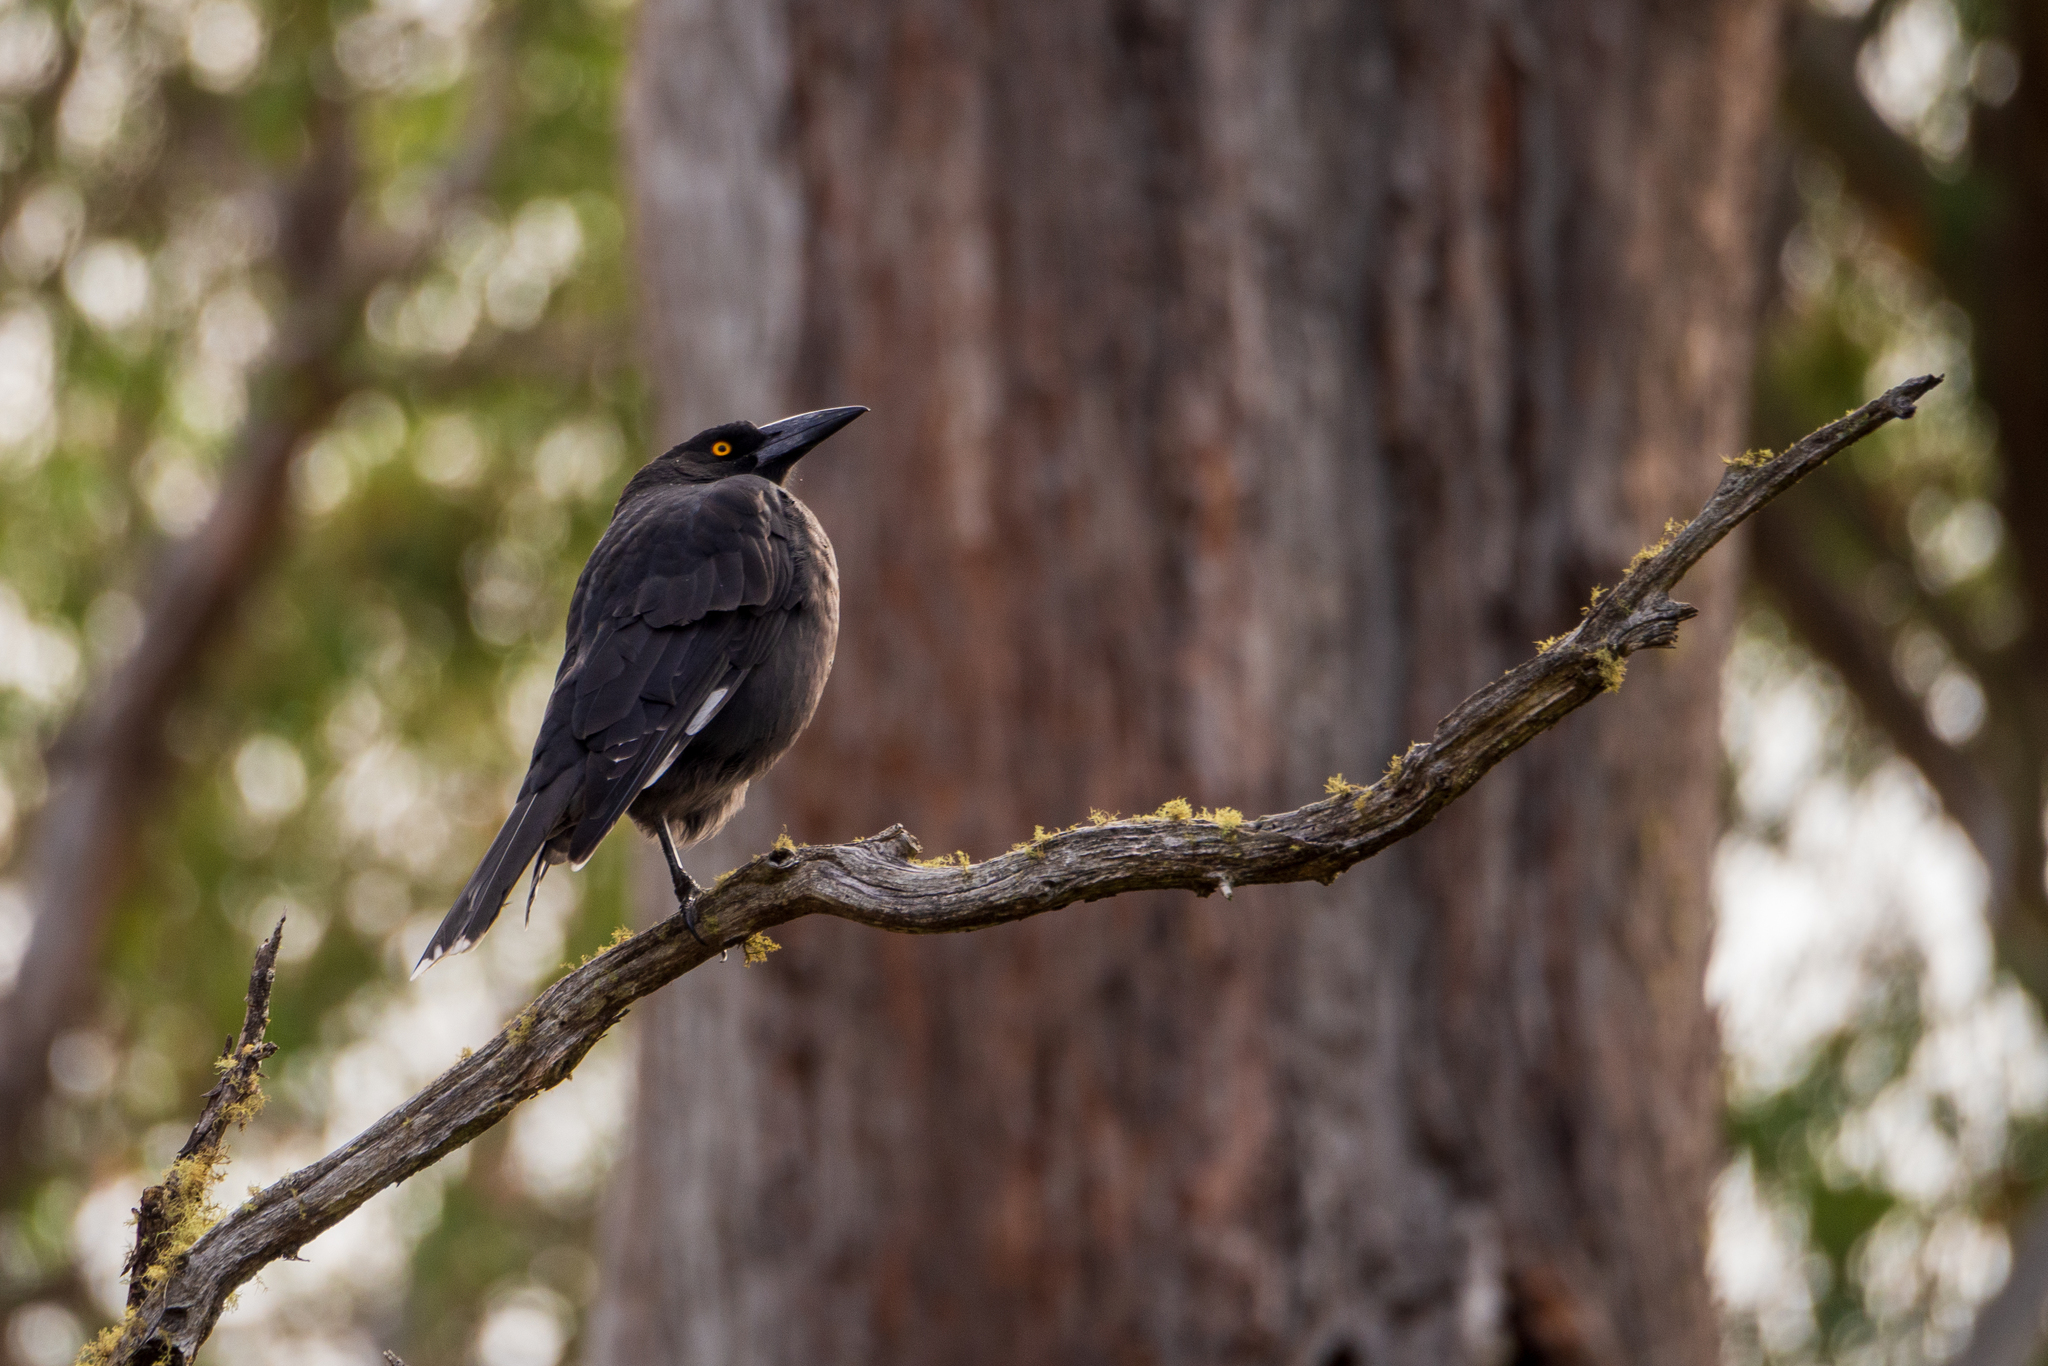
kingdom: Animalia
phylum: Chordata
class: Aves
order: Passeriformes
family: Cracticidae
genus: Strepera
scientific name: Strepera fuliginosa
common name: Black currawong
